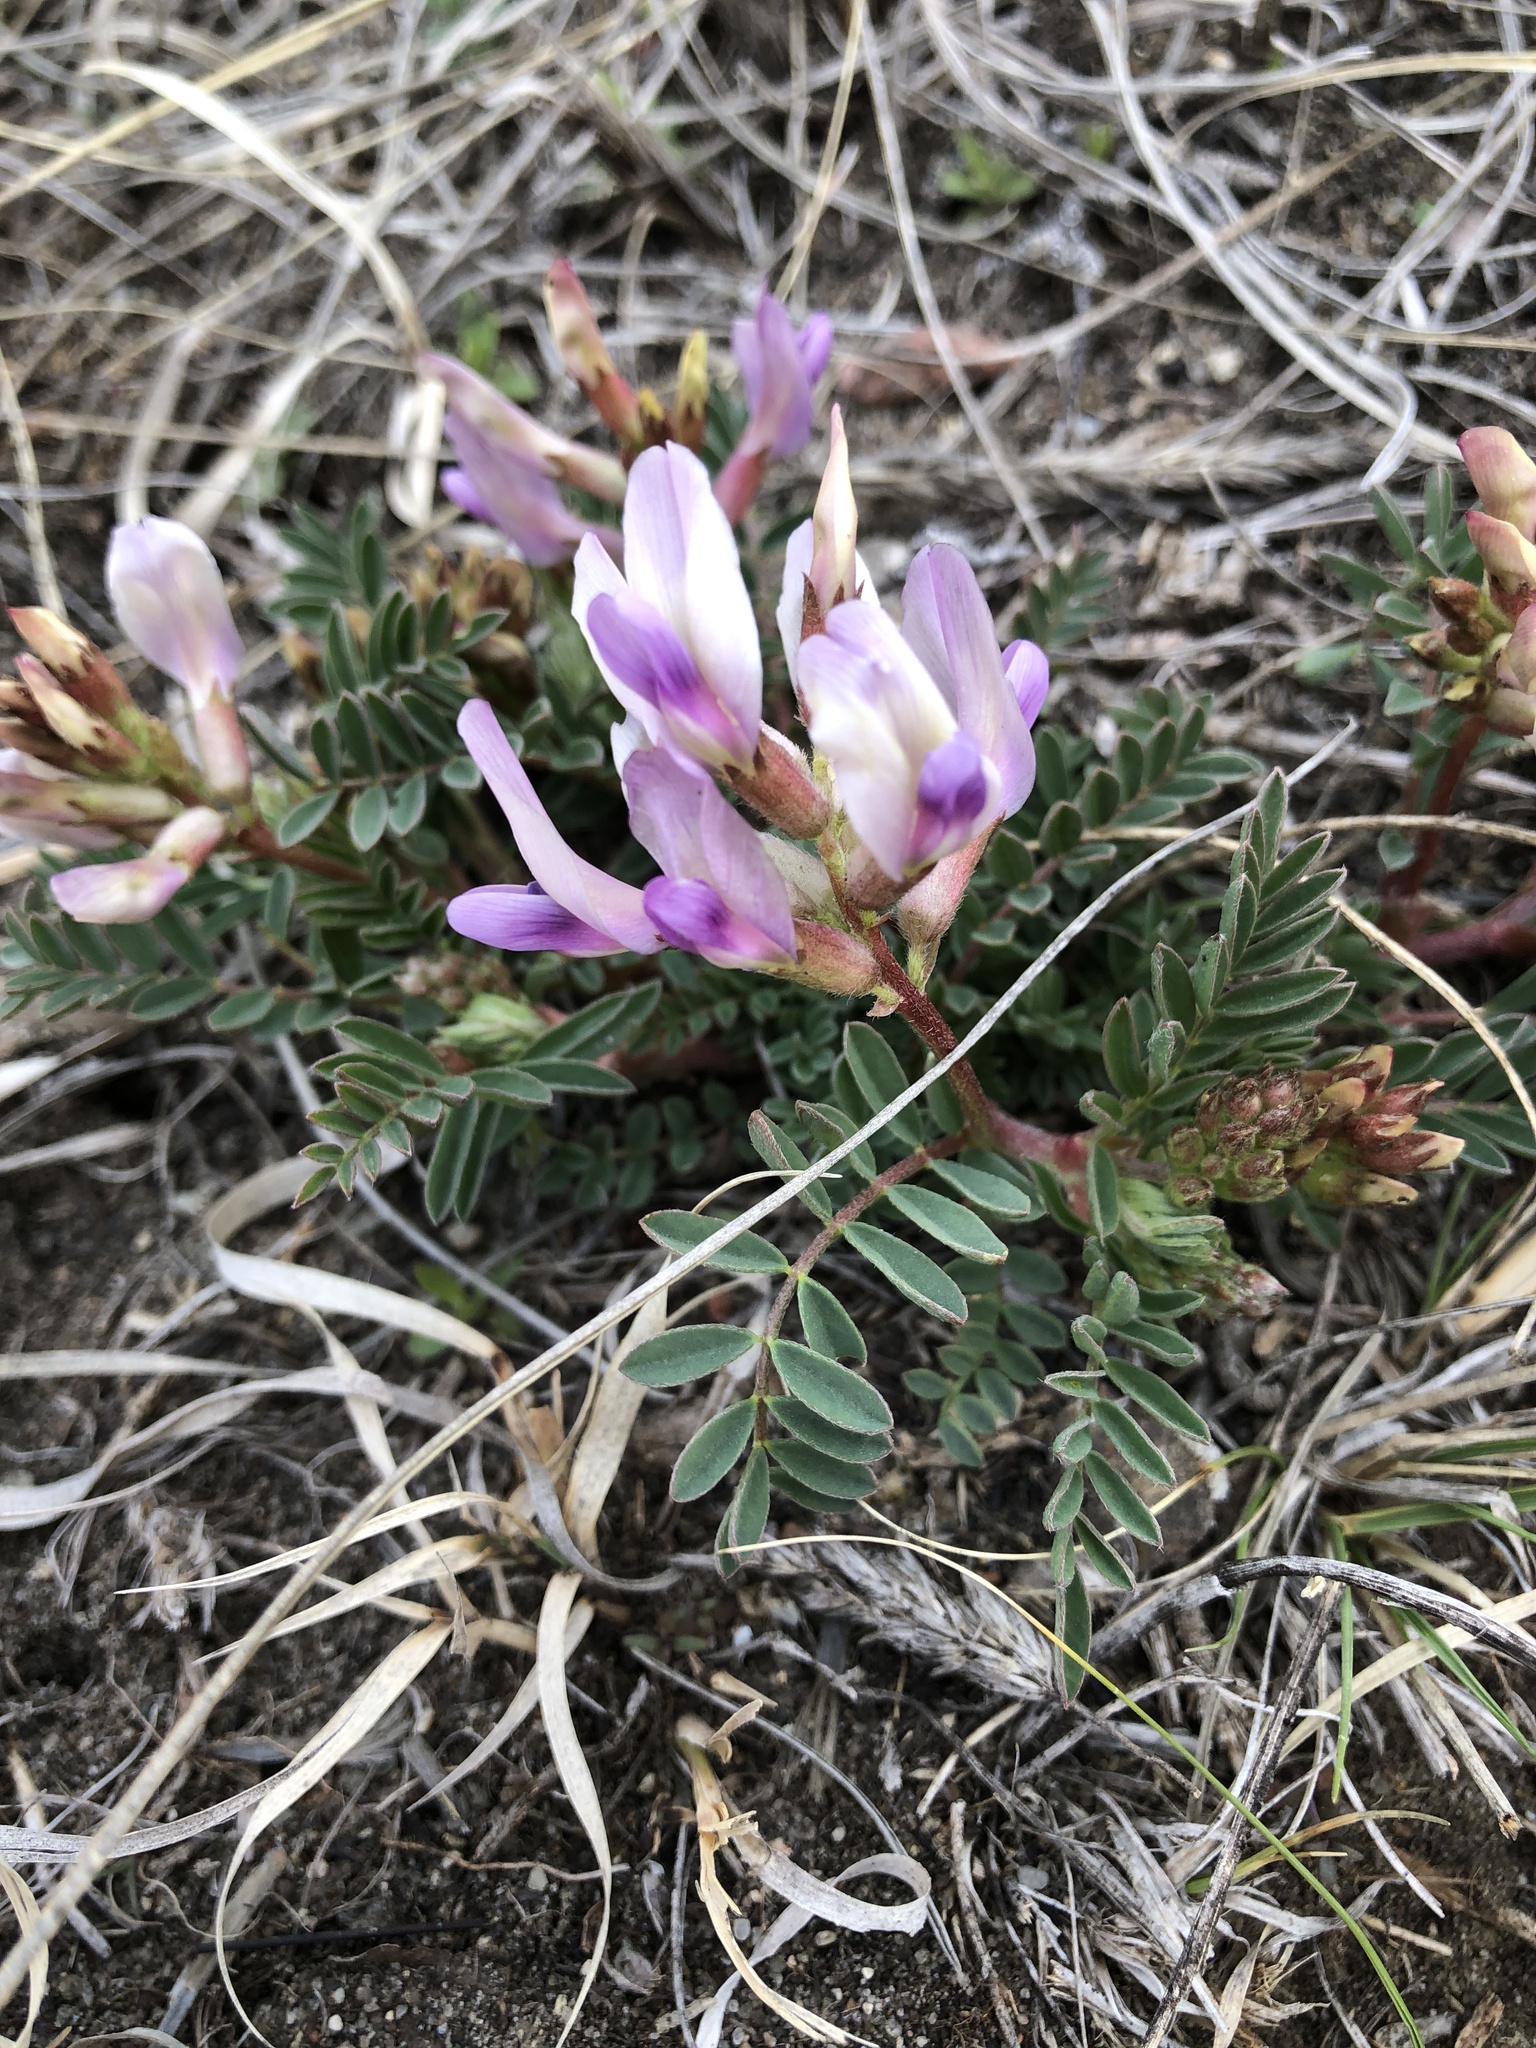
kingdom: Plantae
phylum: Tracheophyta
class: Magnoliopsida
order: Fabales
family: Fabaceae
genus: Astragalus
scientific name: Astragalus crassicarpus
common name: Ground-plum milk-vetch
